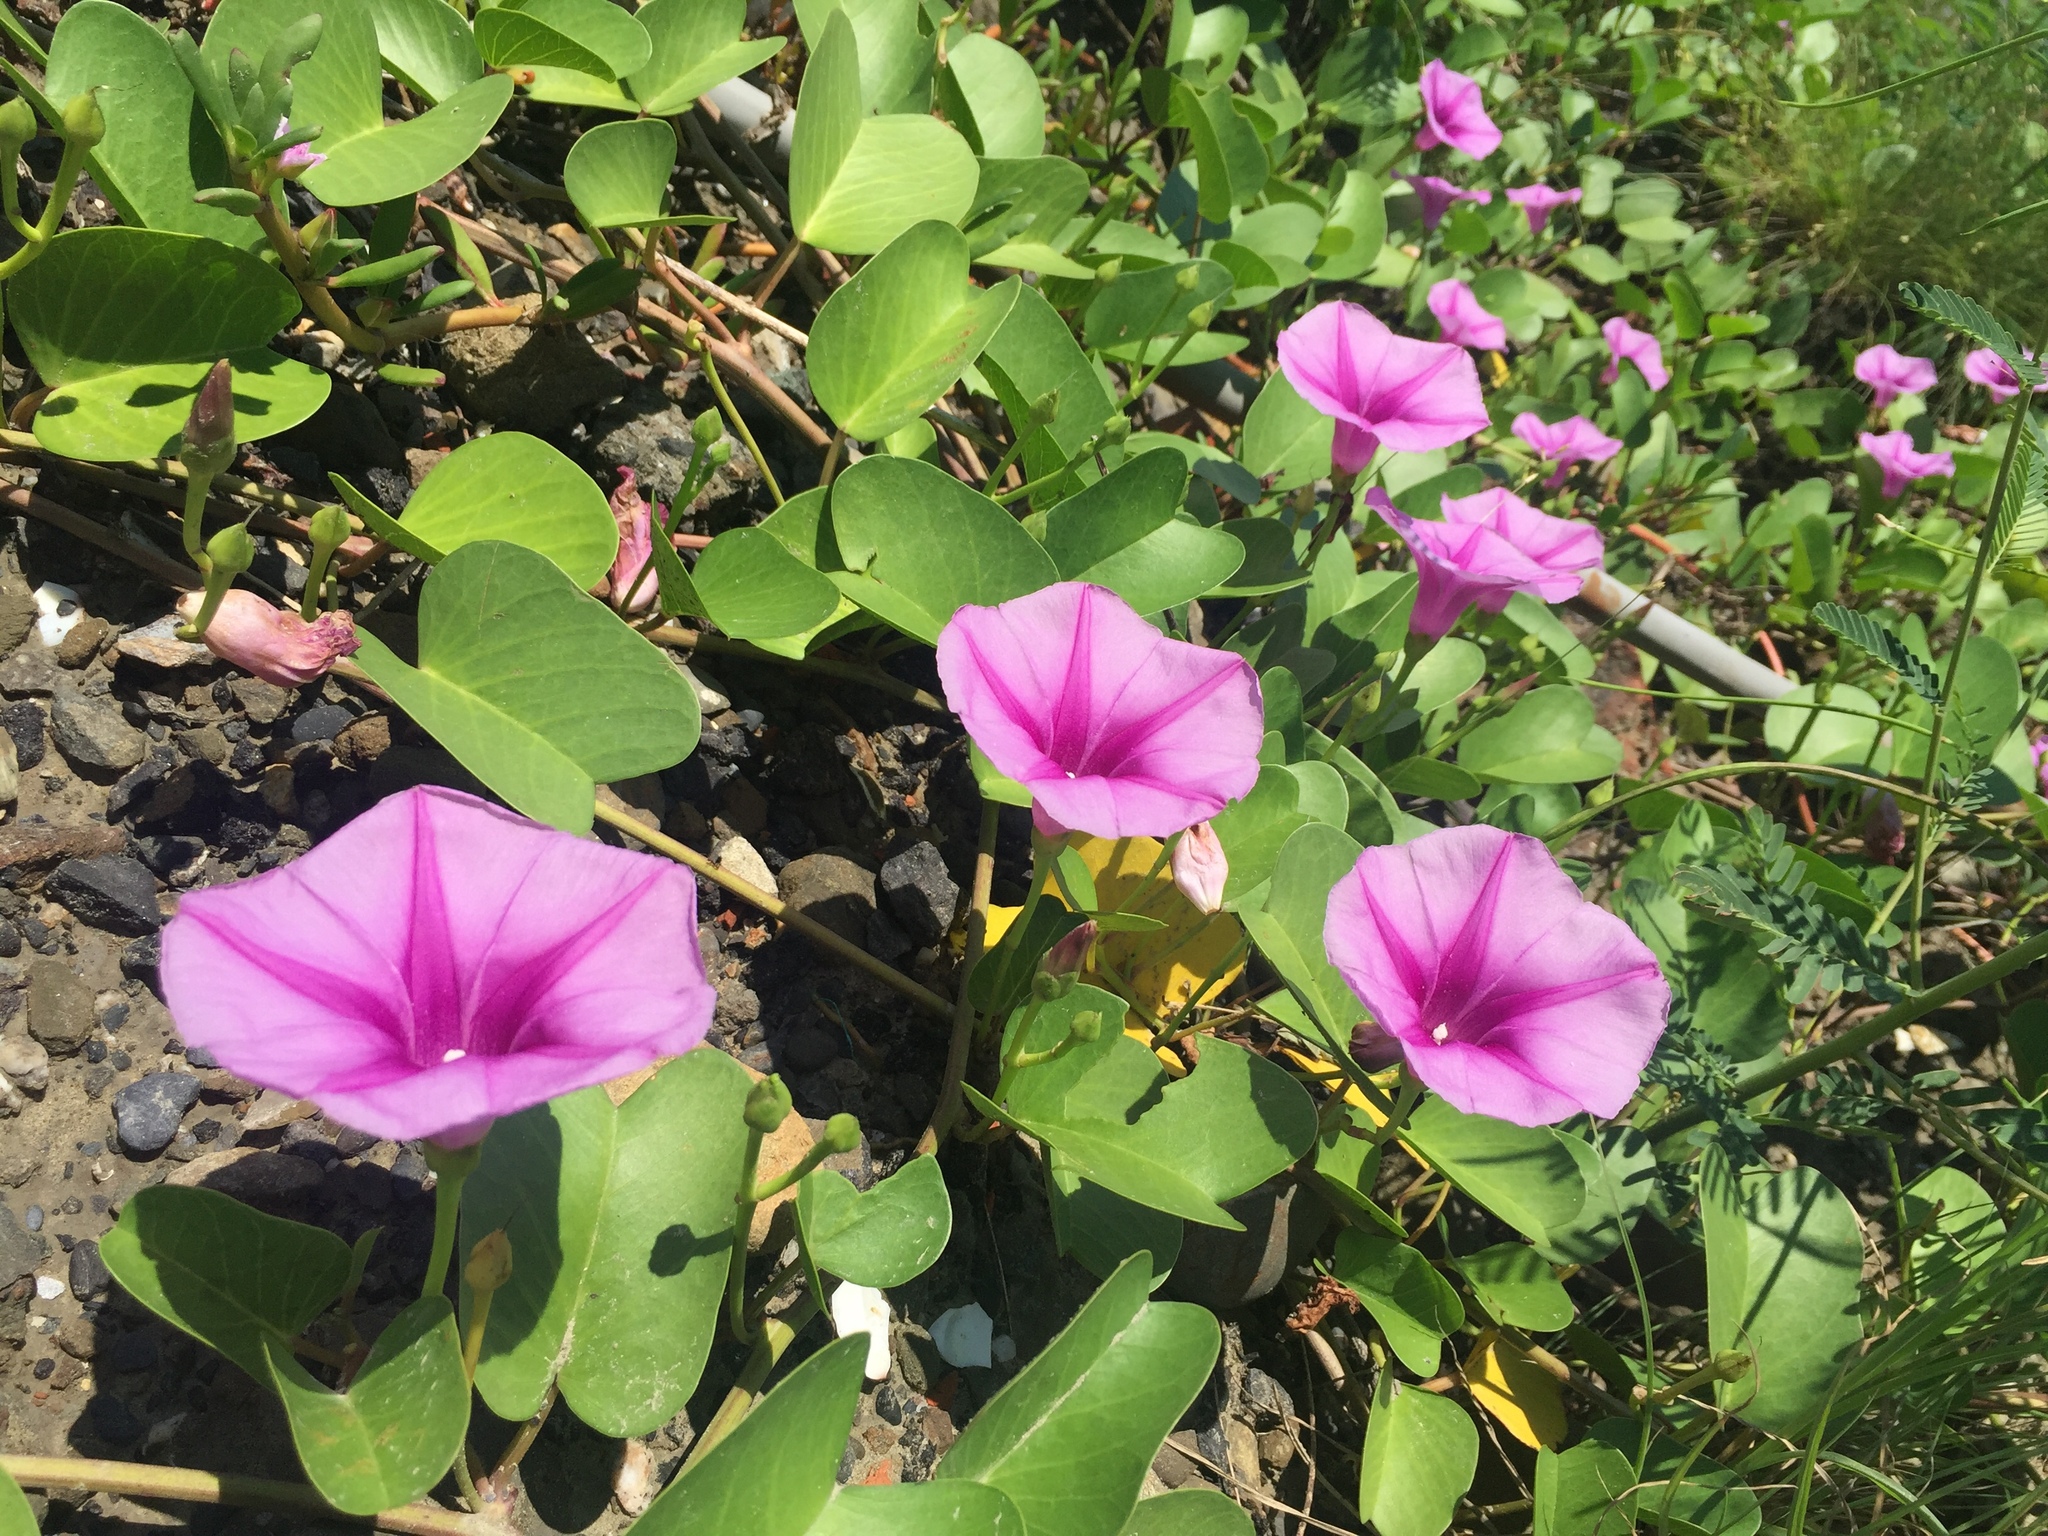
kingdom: Plantae
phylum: Tracheophyta
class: Magnoliopsida
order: Solanales
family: Convolvulaceae
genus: Ipomoea
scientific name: Ipomoea pes-caprae
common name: Beach morning glory
